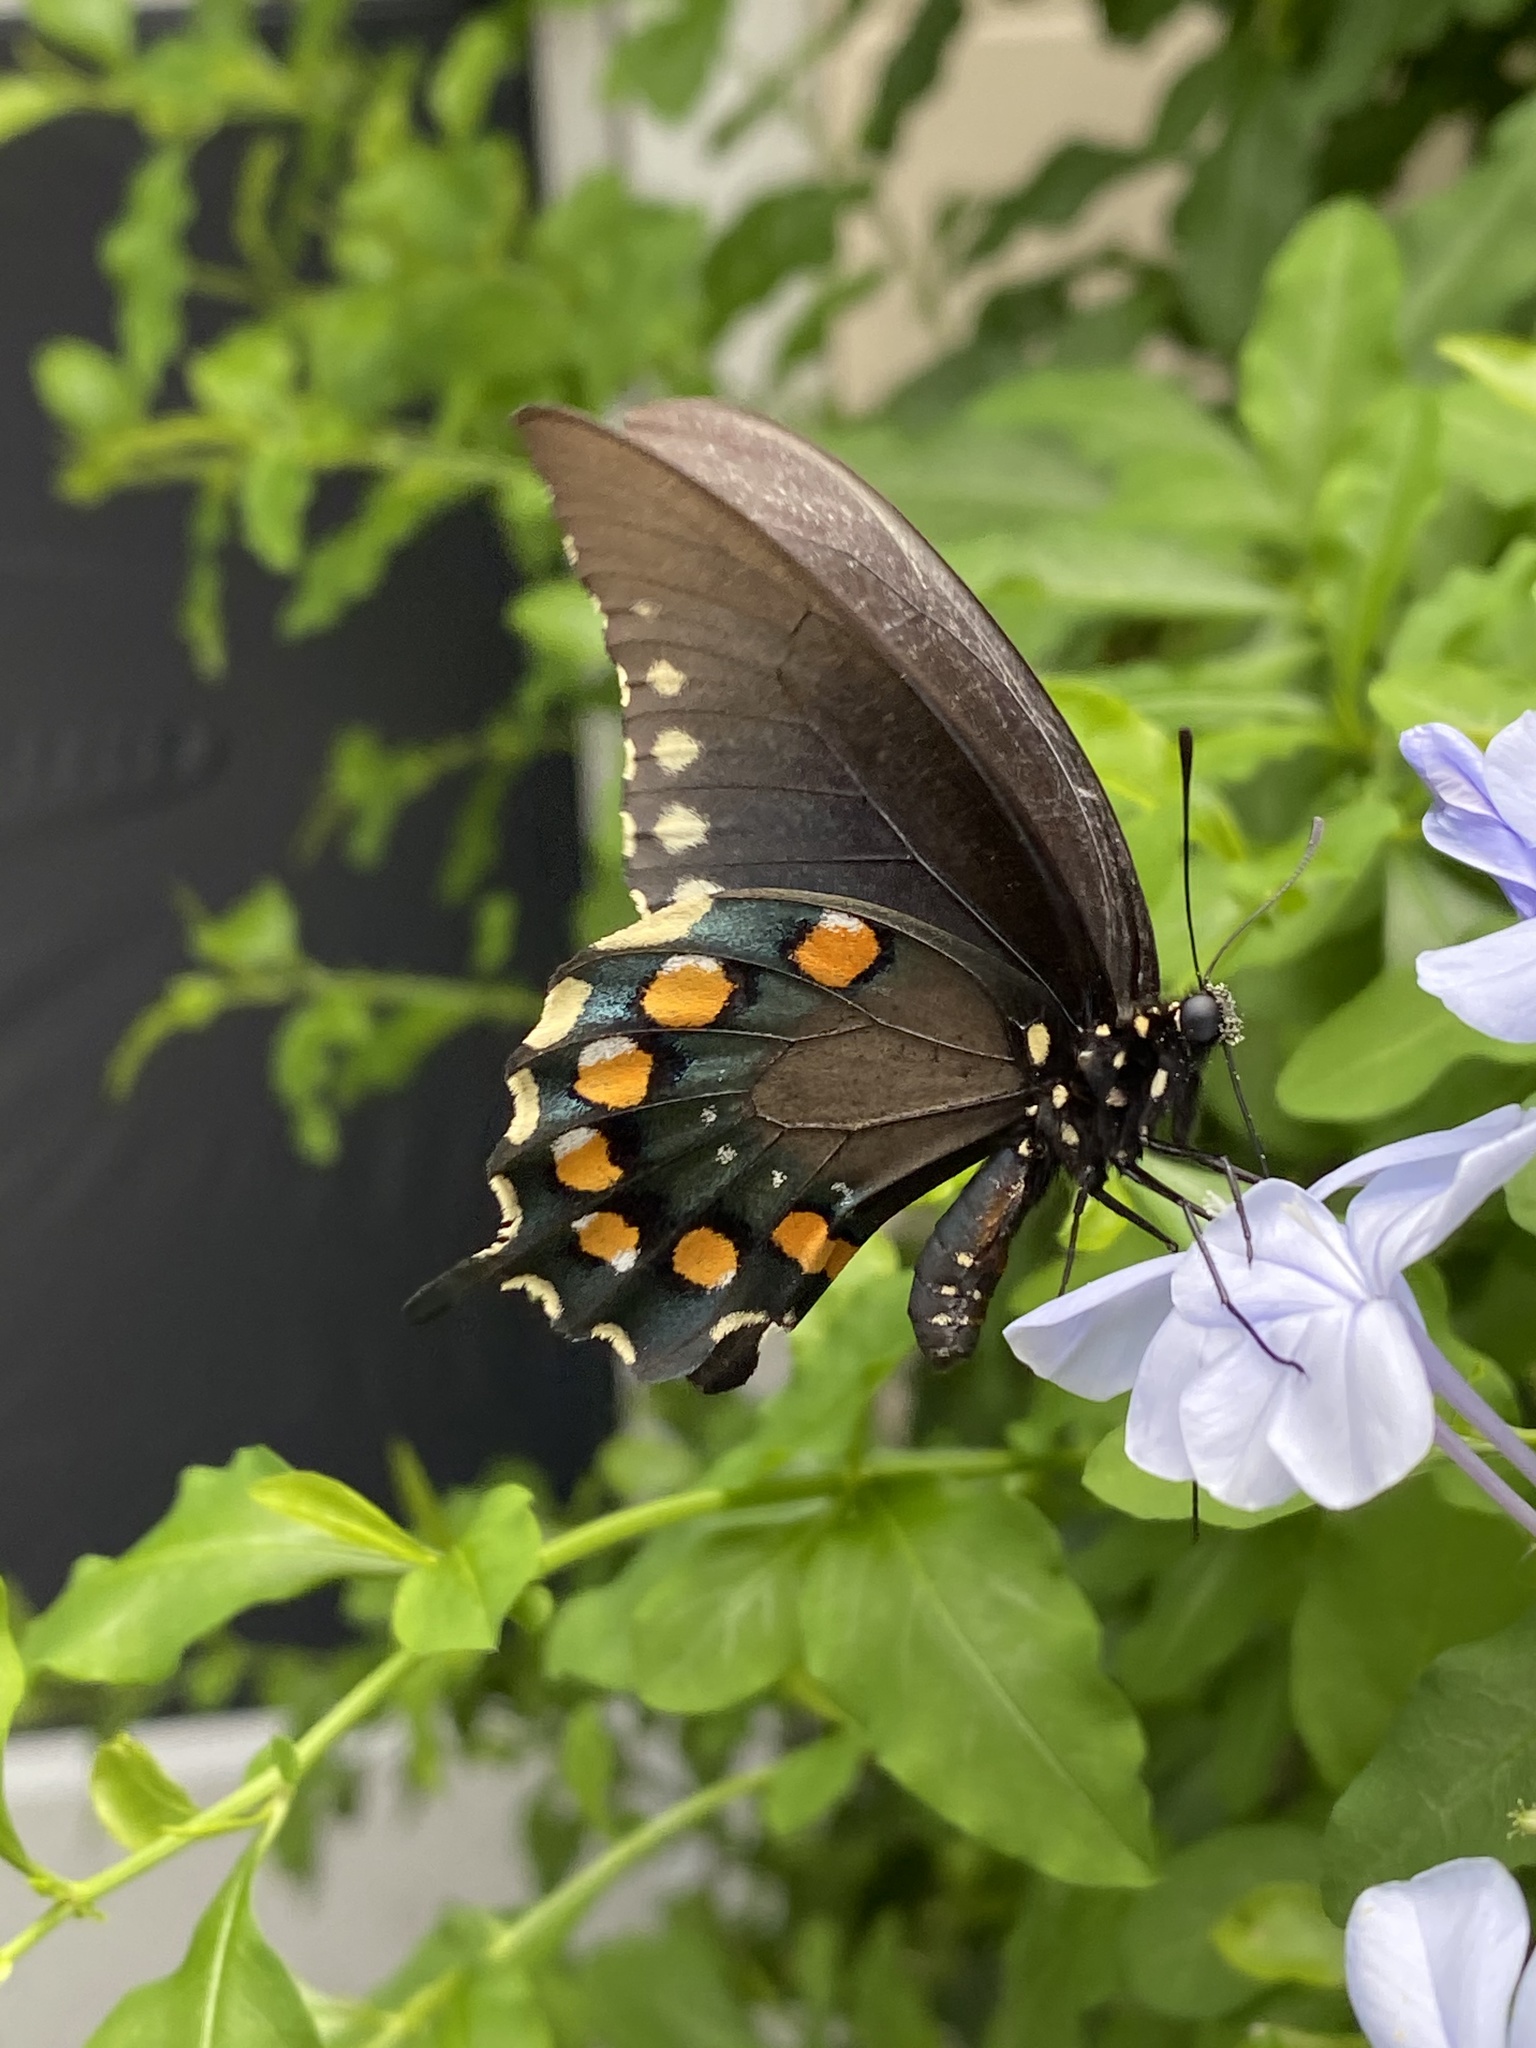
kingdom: Animalia
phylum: Arthropoda
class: Insecta
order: Lepidoptera
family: Papilionidae
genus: Battus
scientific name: Battus philenor
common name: Pipevine swallowtail
